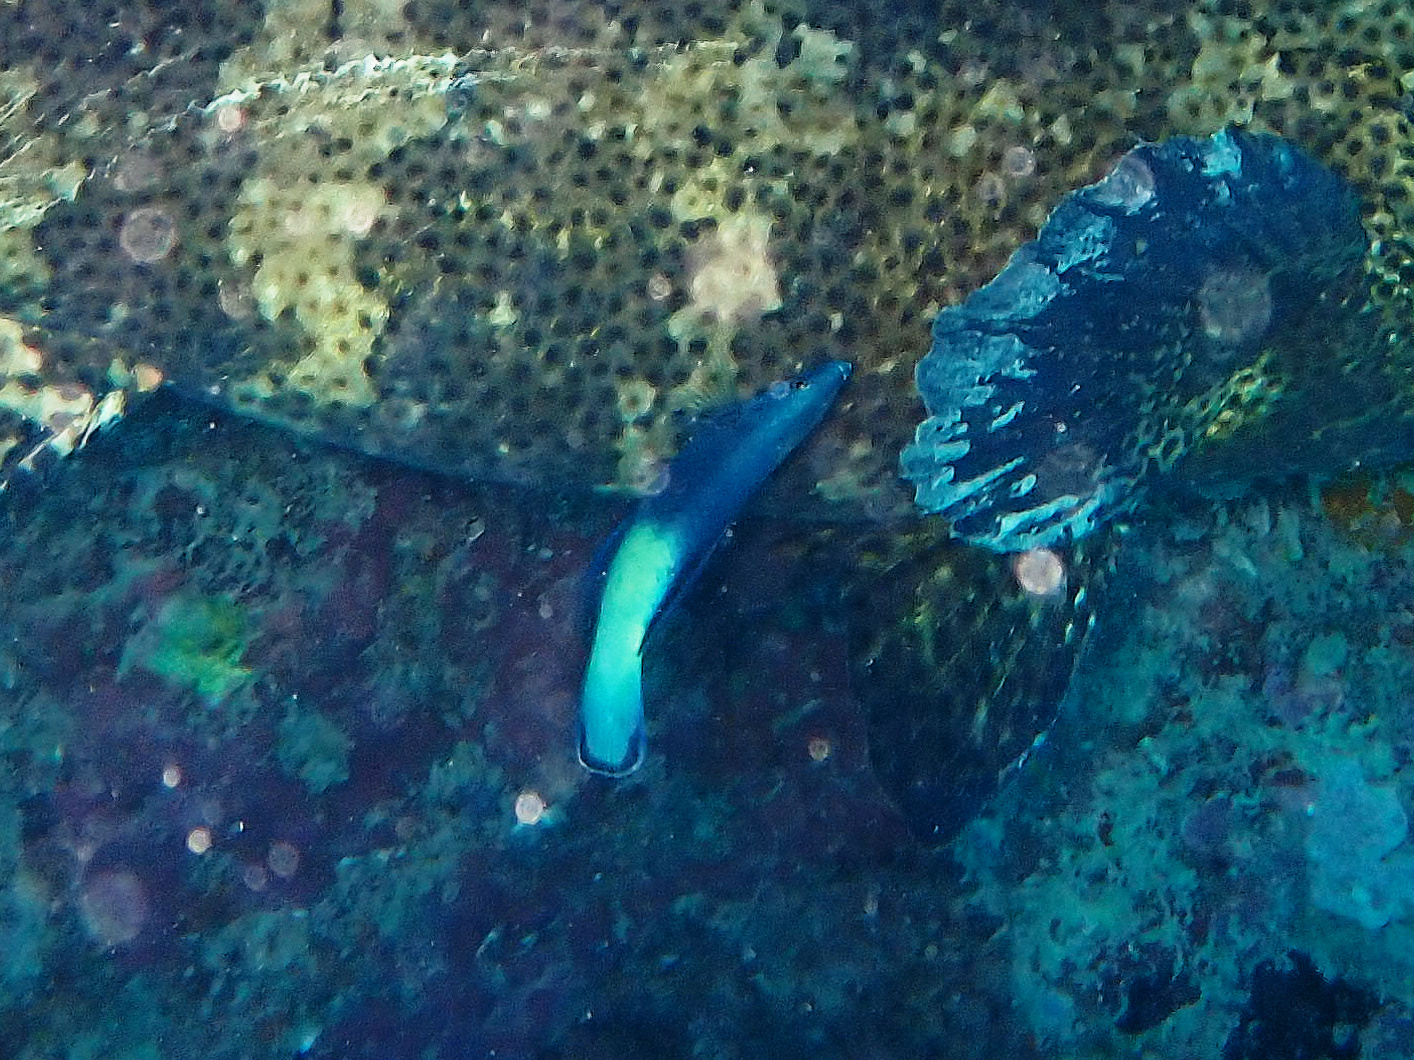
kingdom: Animalia
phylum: Chordata
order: Perciformes
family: Labridae
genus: Labroides
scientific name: Labroides bicolor
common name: Bicolor cleaner wrasse
